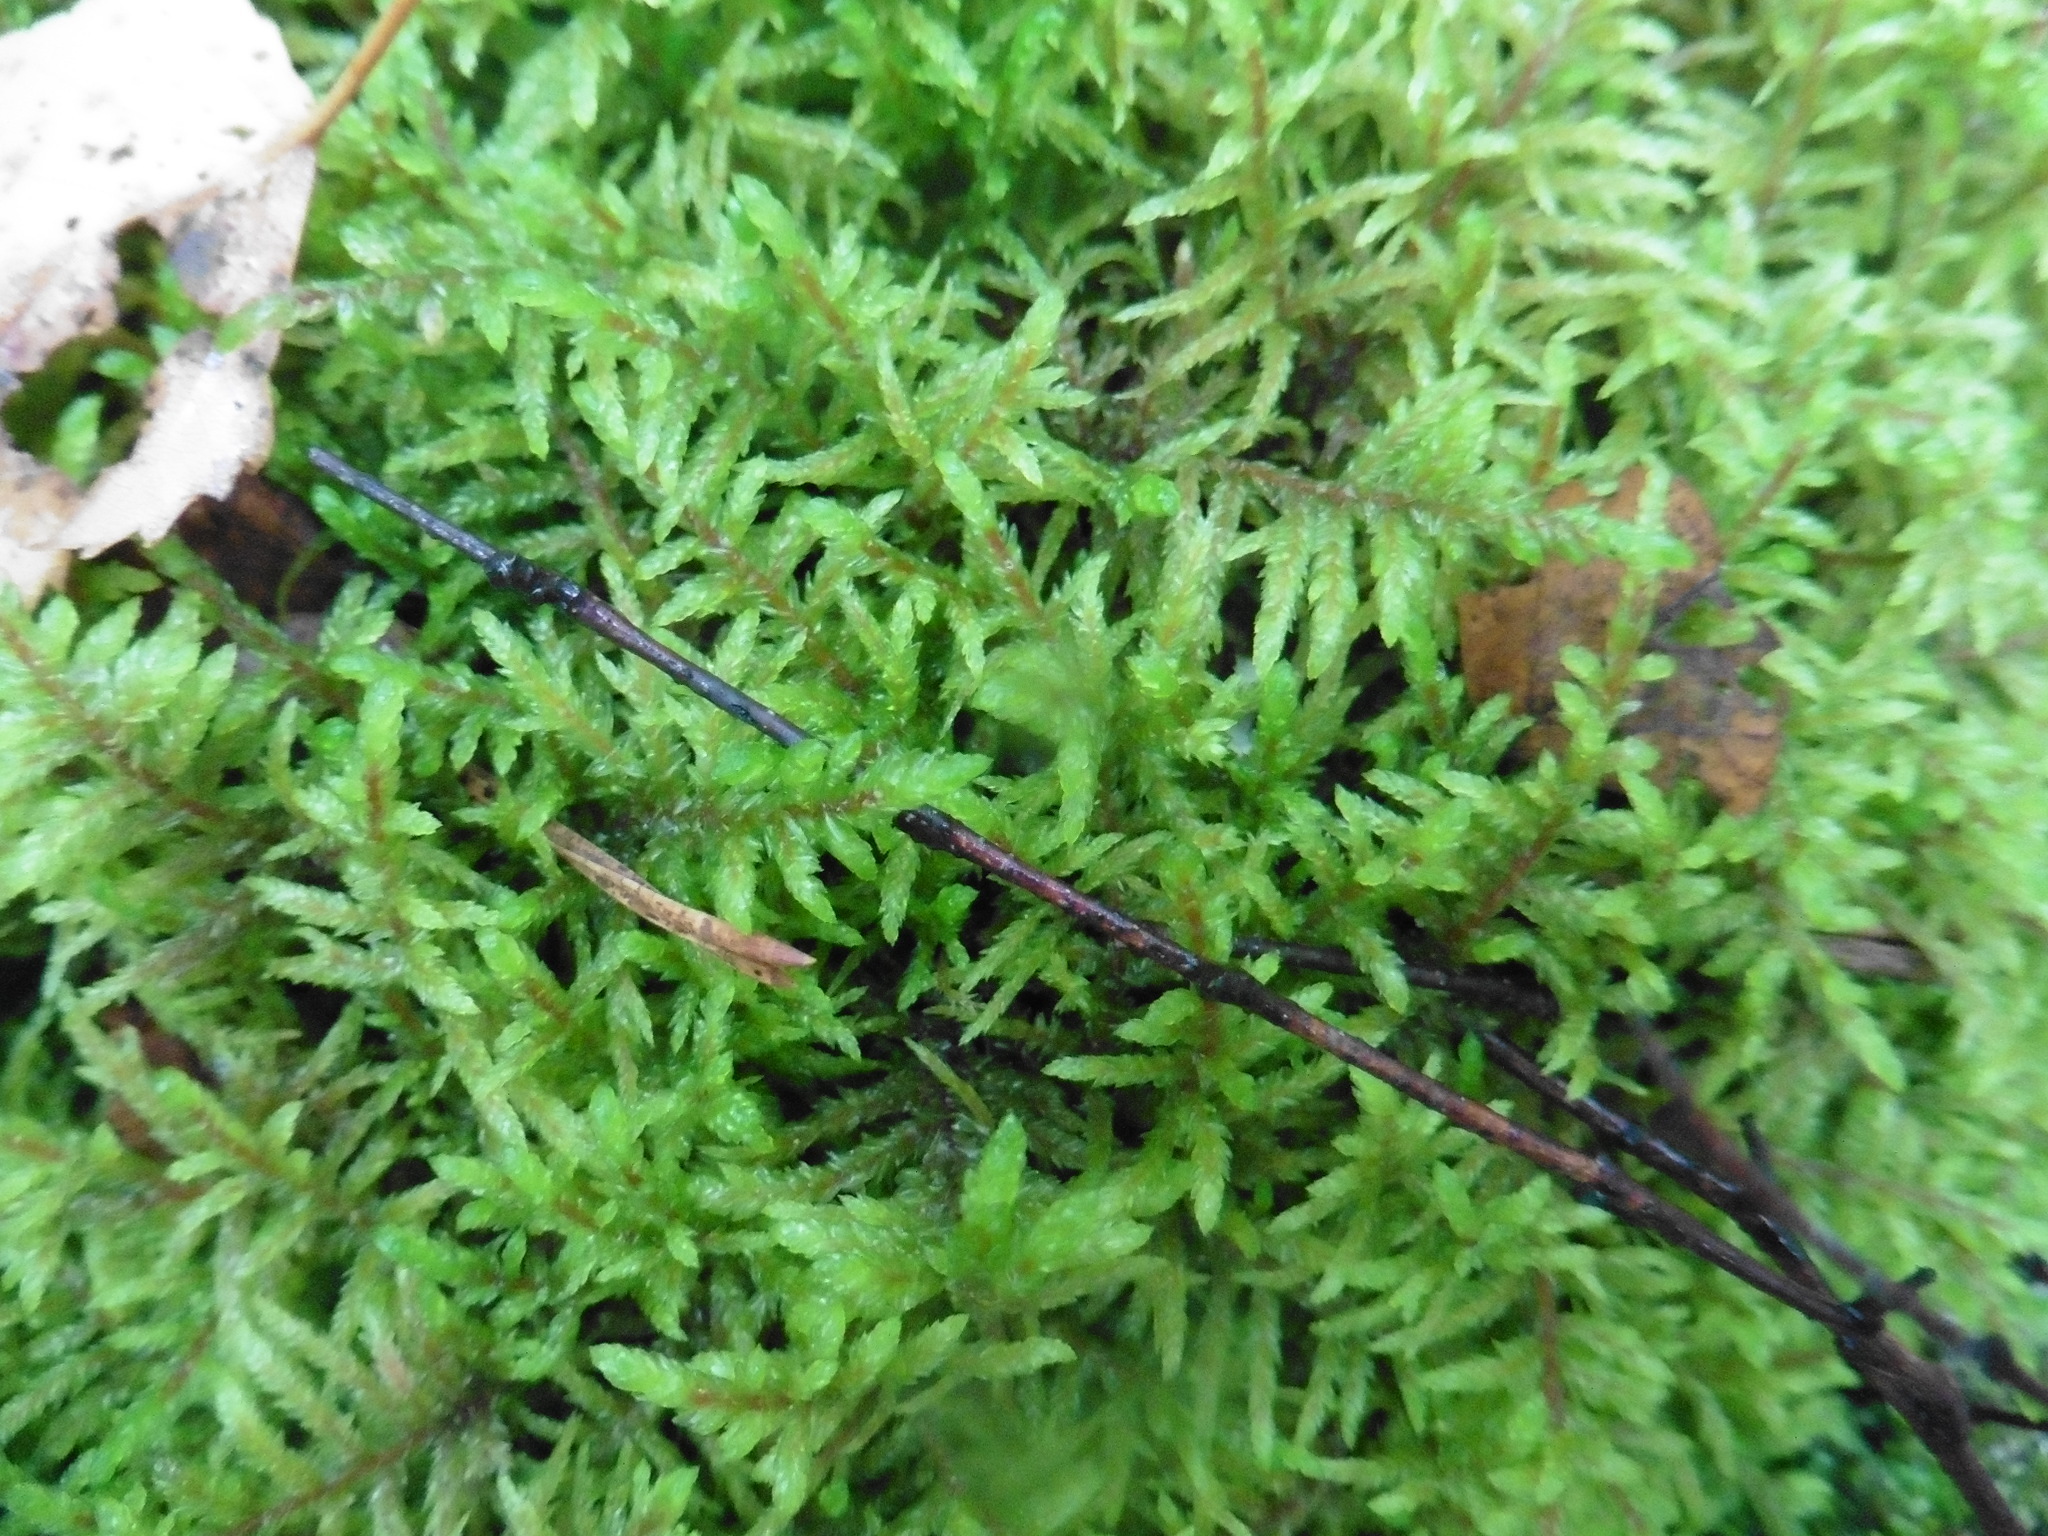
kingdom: Plantae
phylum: Bryophyta
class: Bryopsida
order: Hypnales
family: Hylocomiaceae
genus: Pleurozium
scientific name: Pleurozium schreberi
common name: Red-stemmed feather moss
